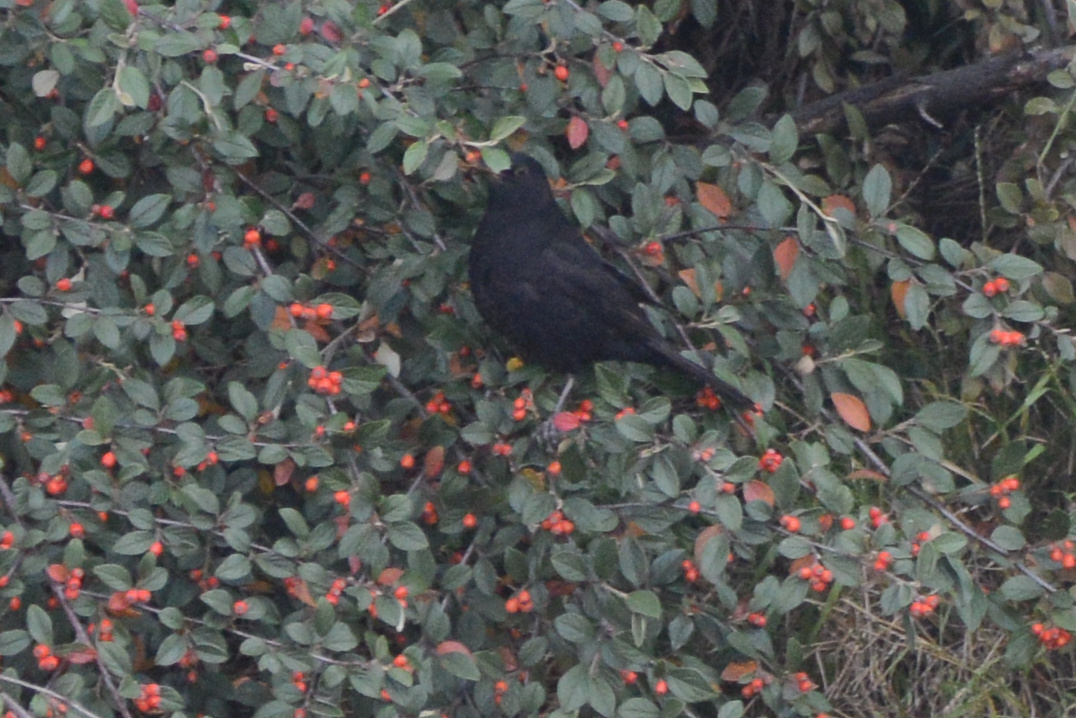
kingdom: Animalia
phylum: Chordata
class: Aves
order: Passeriformes
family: Turdidae
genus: Turdus
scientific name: Turdus merula
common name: Common blackbird
